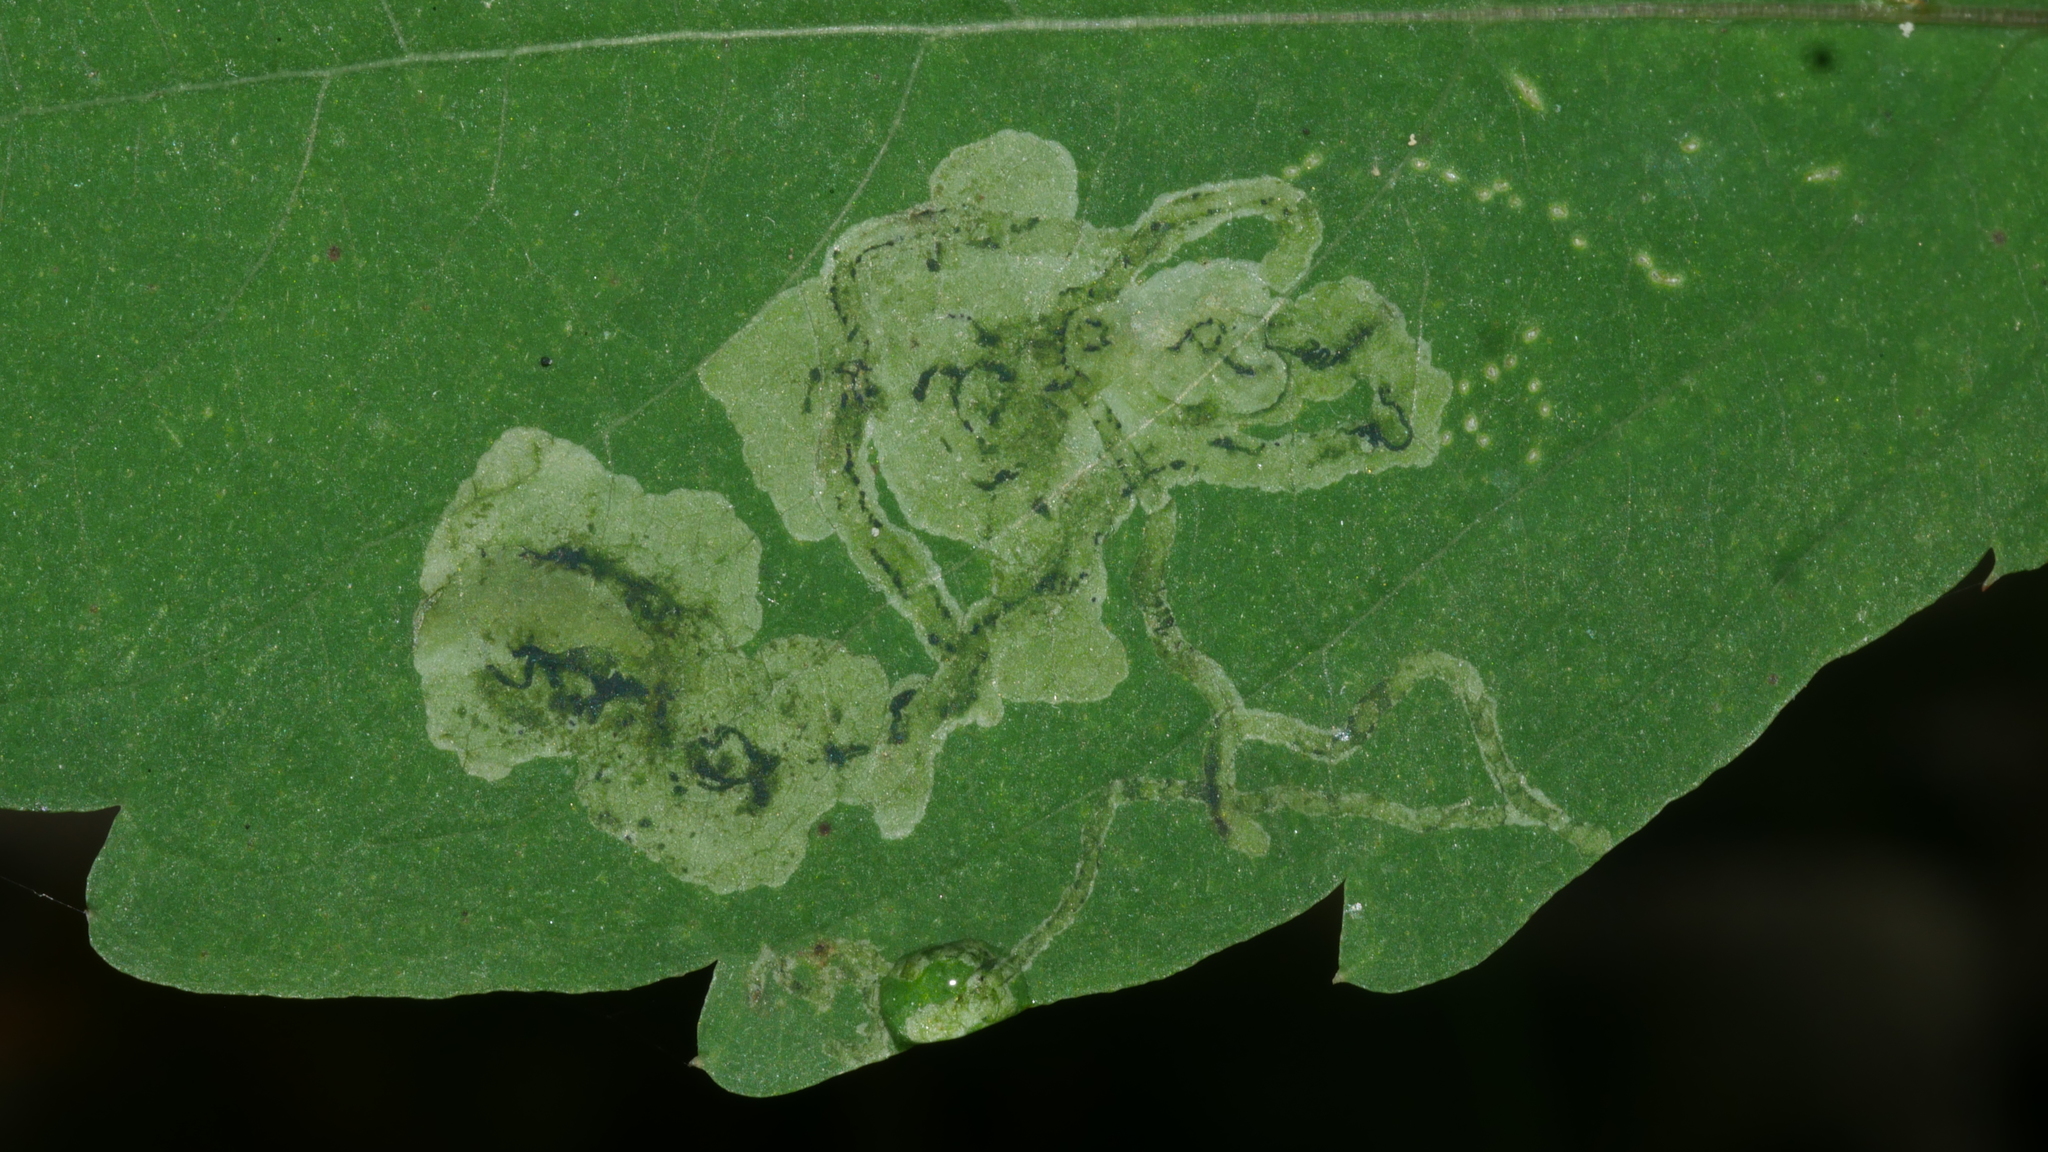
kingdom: Animalia
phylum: Arthropoda
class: Insecta
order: Diptera
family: Agromyzidae
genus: Phytoliriomyza
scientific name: Phytoliriomyza melampyga
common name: Jewelweed leaf-miner fly
